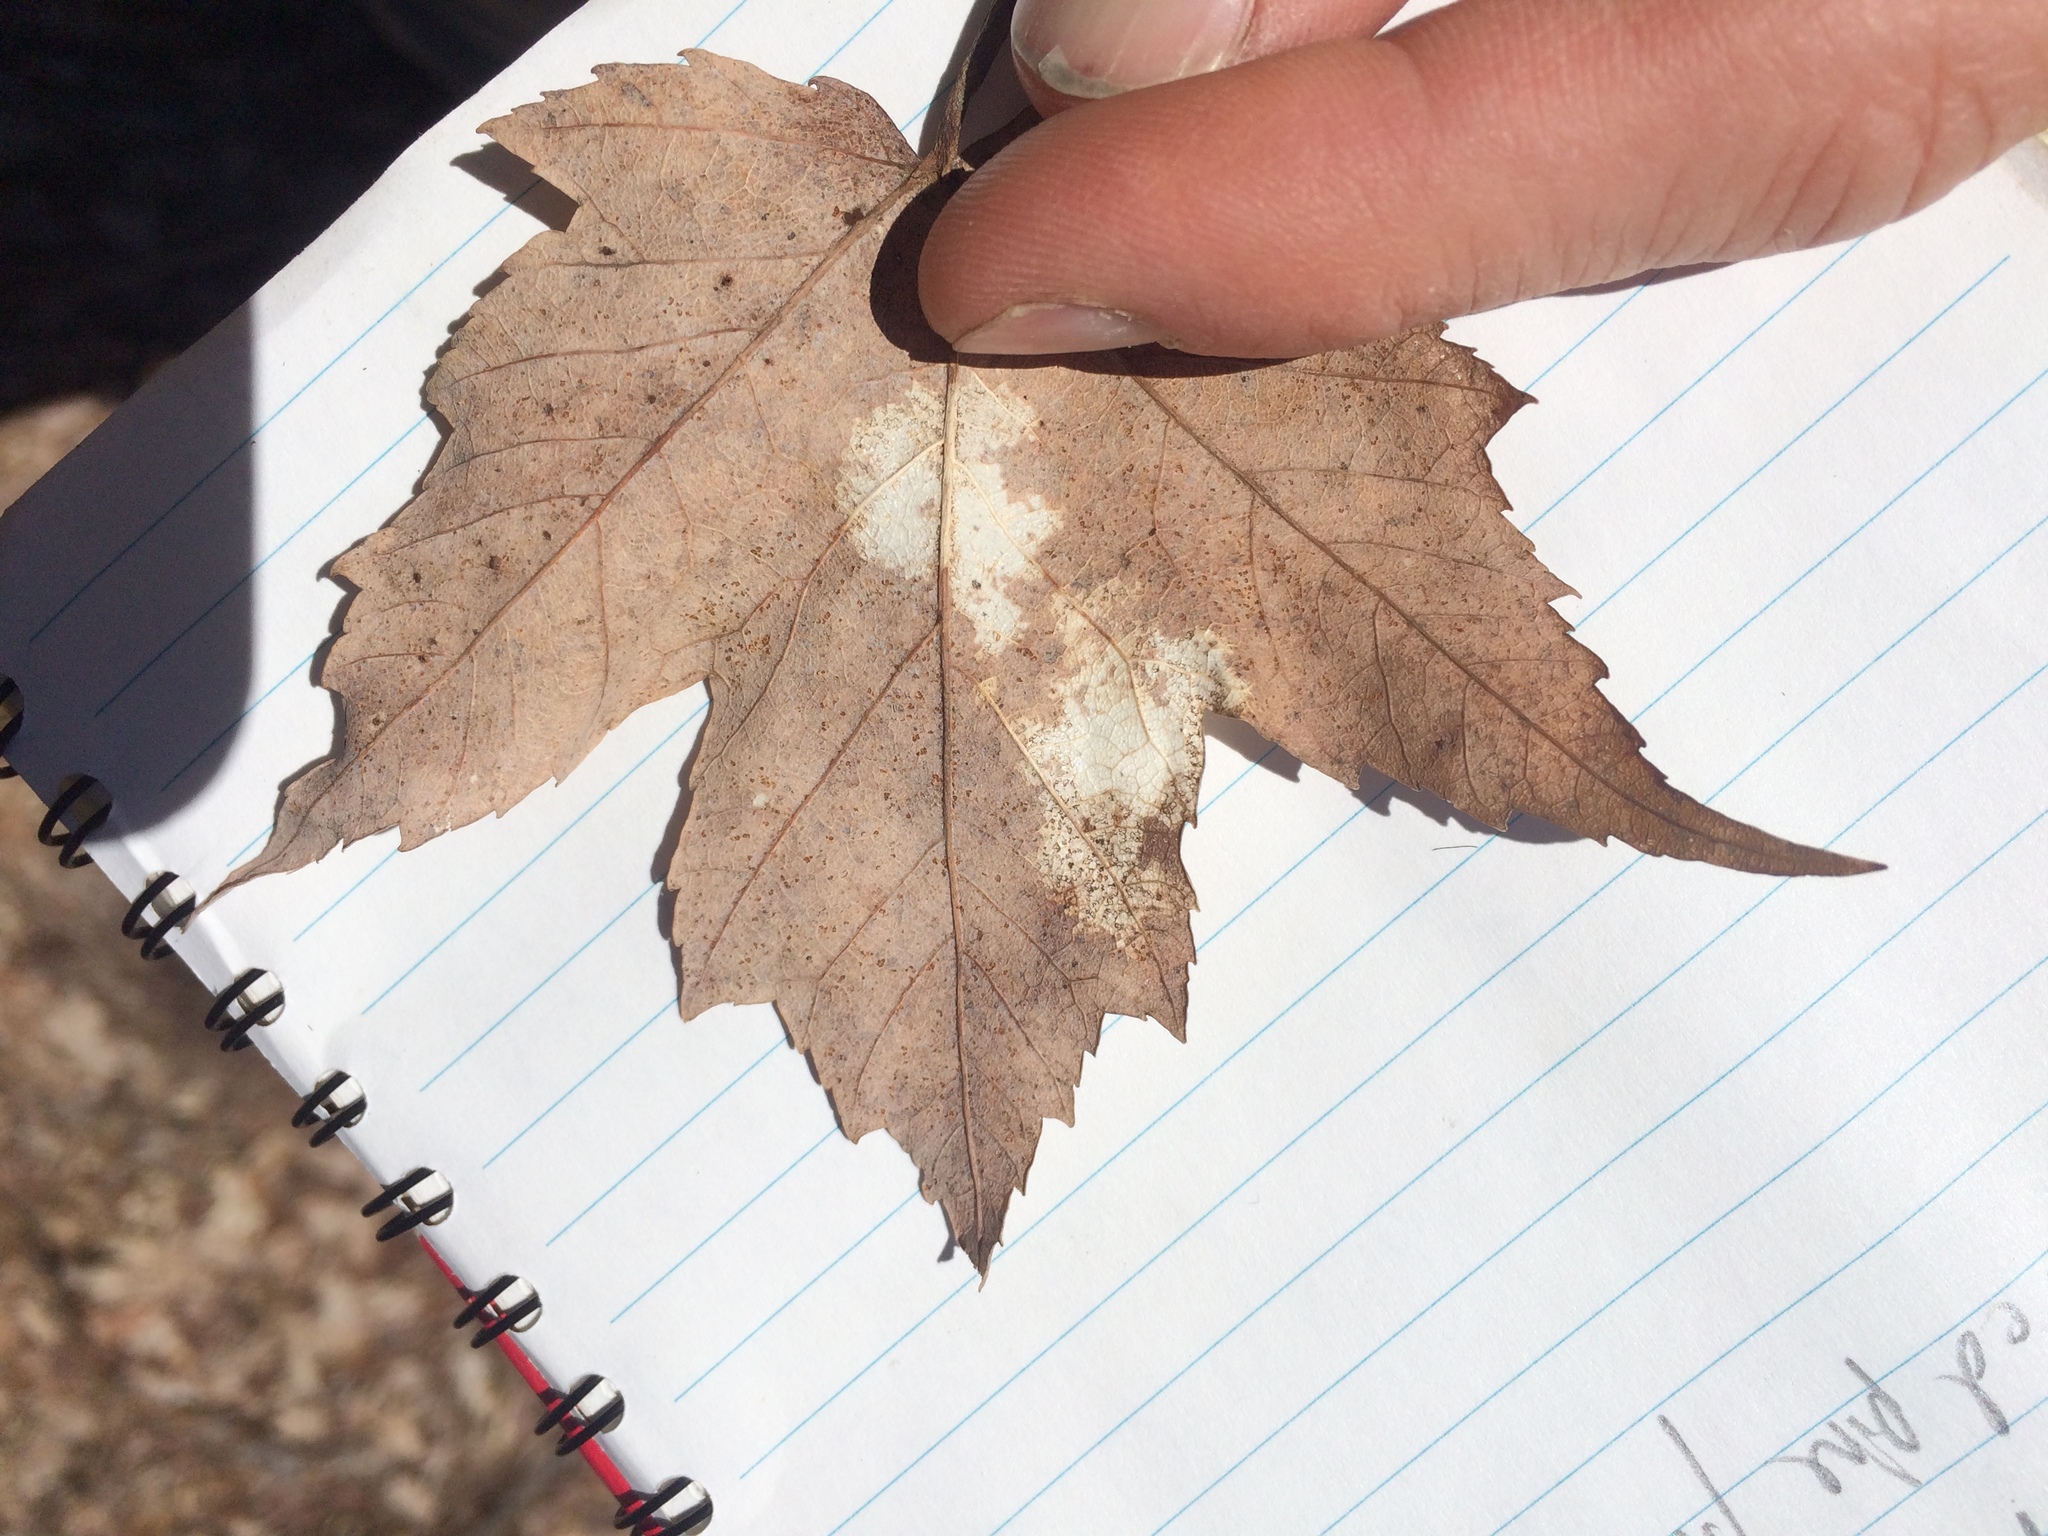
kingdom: Plantae
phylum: Tracheophyta
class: Magnoliopsida
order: Sapindales
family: Sapindaceae
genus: Acer
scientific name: Acer rubrum
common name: Red maple
